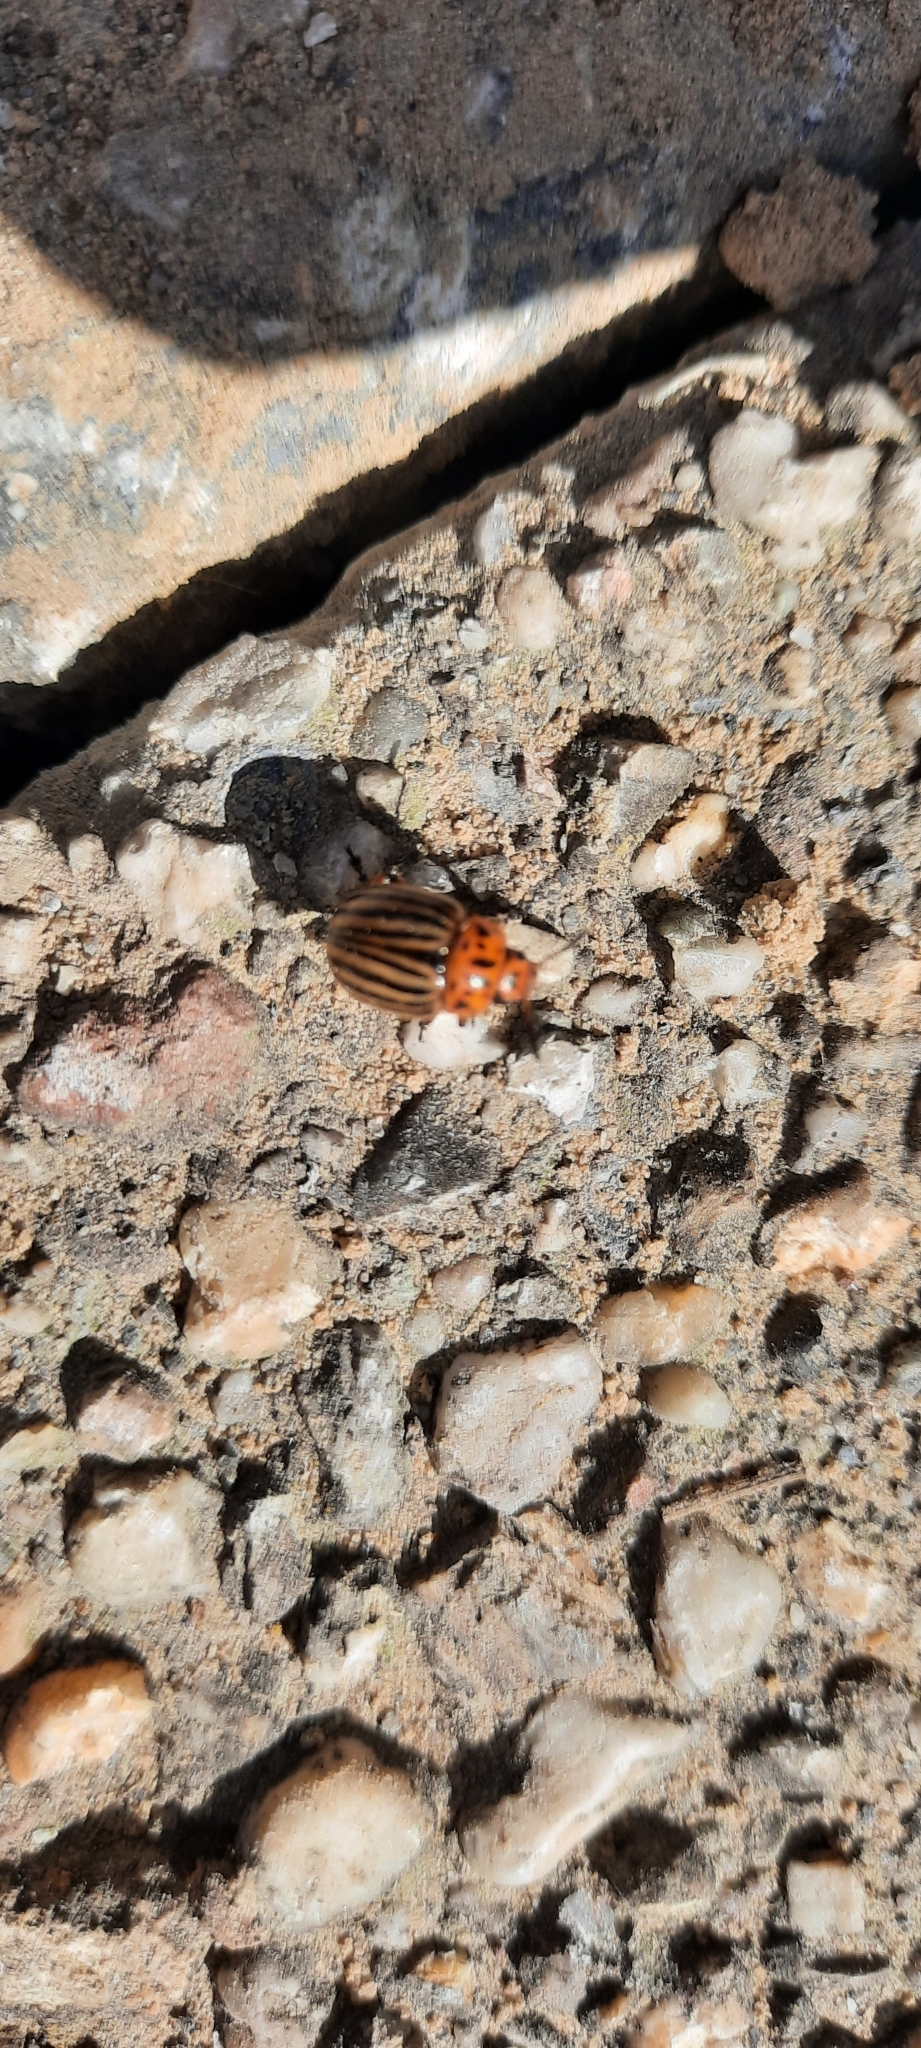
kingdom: Animalia
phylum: Arthropoda
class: Insecta
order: Coleoptera
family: Chrysomelidae
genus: Leptinotarsa
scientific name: Leptinotarsa decemlineata
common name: Colorado potato beetle
